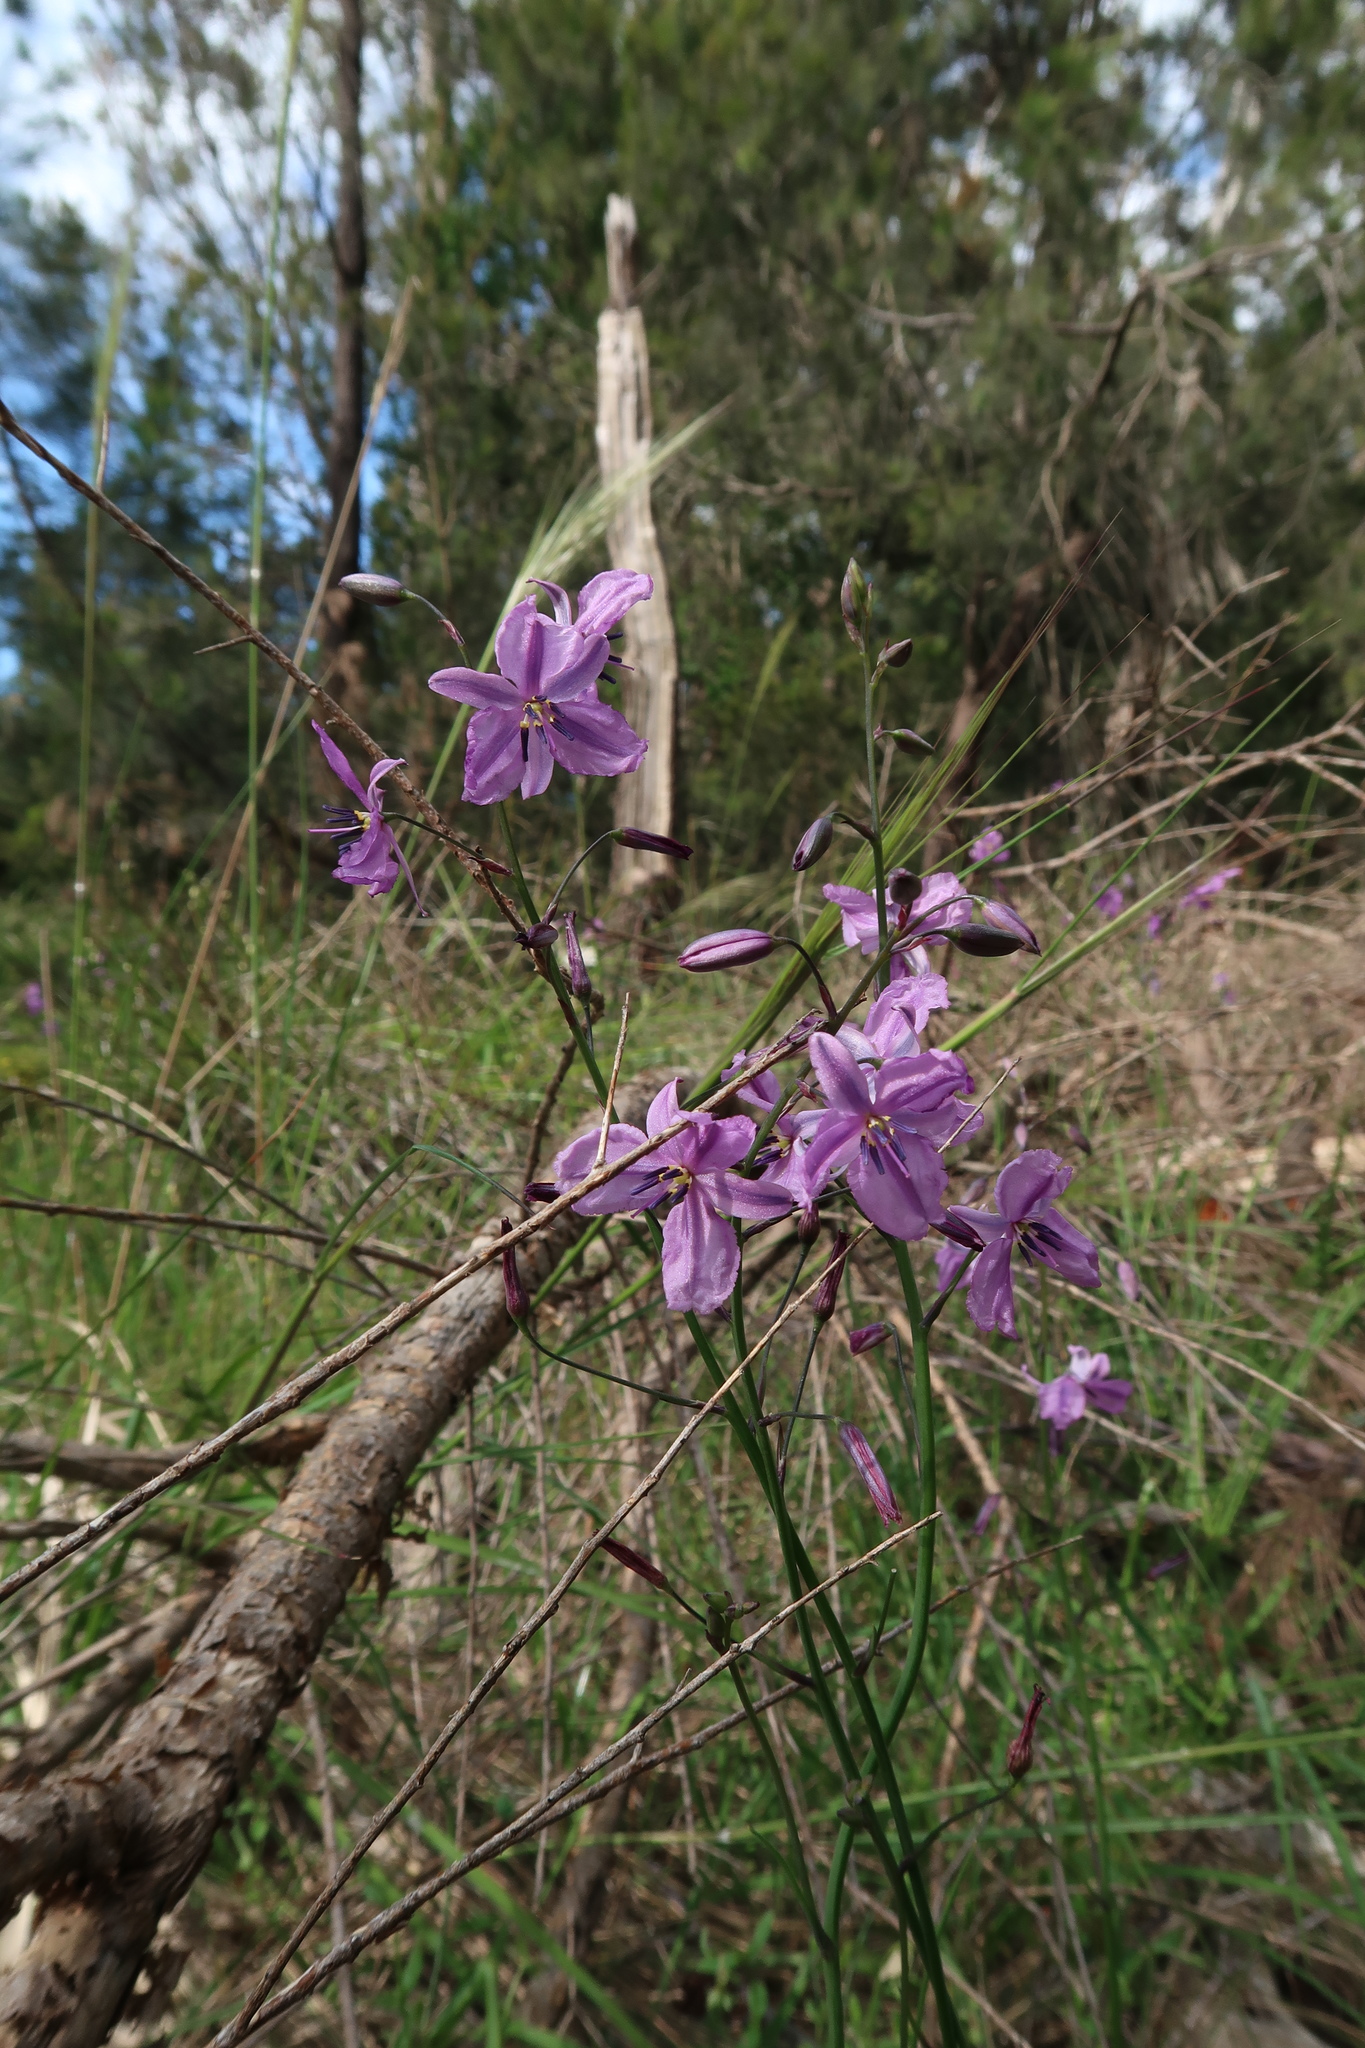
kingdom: Plantae
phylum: Tracheophyta
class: Liliopsida
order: Asparagales
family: Asparagaceae
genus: Arthropodium
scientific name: Arthropodium strictum
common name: Chocolate-lily
